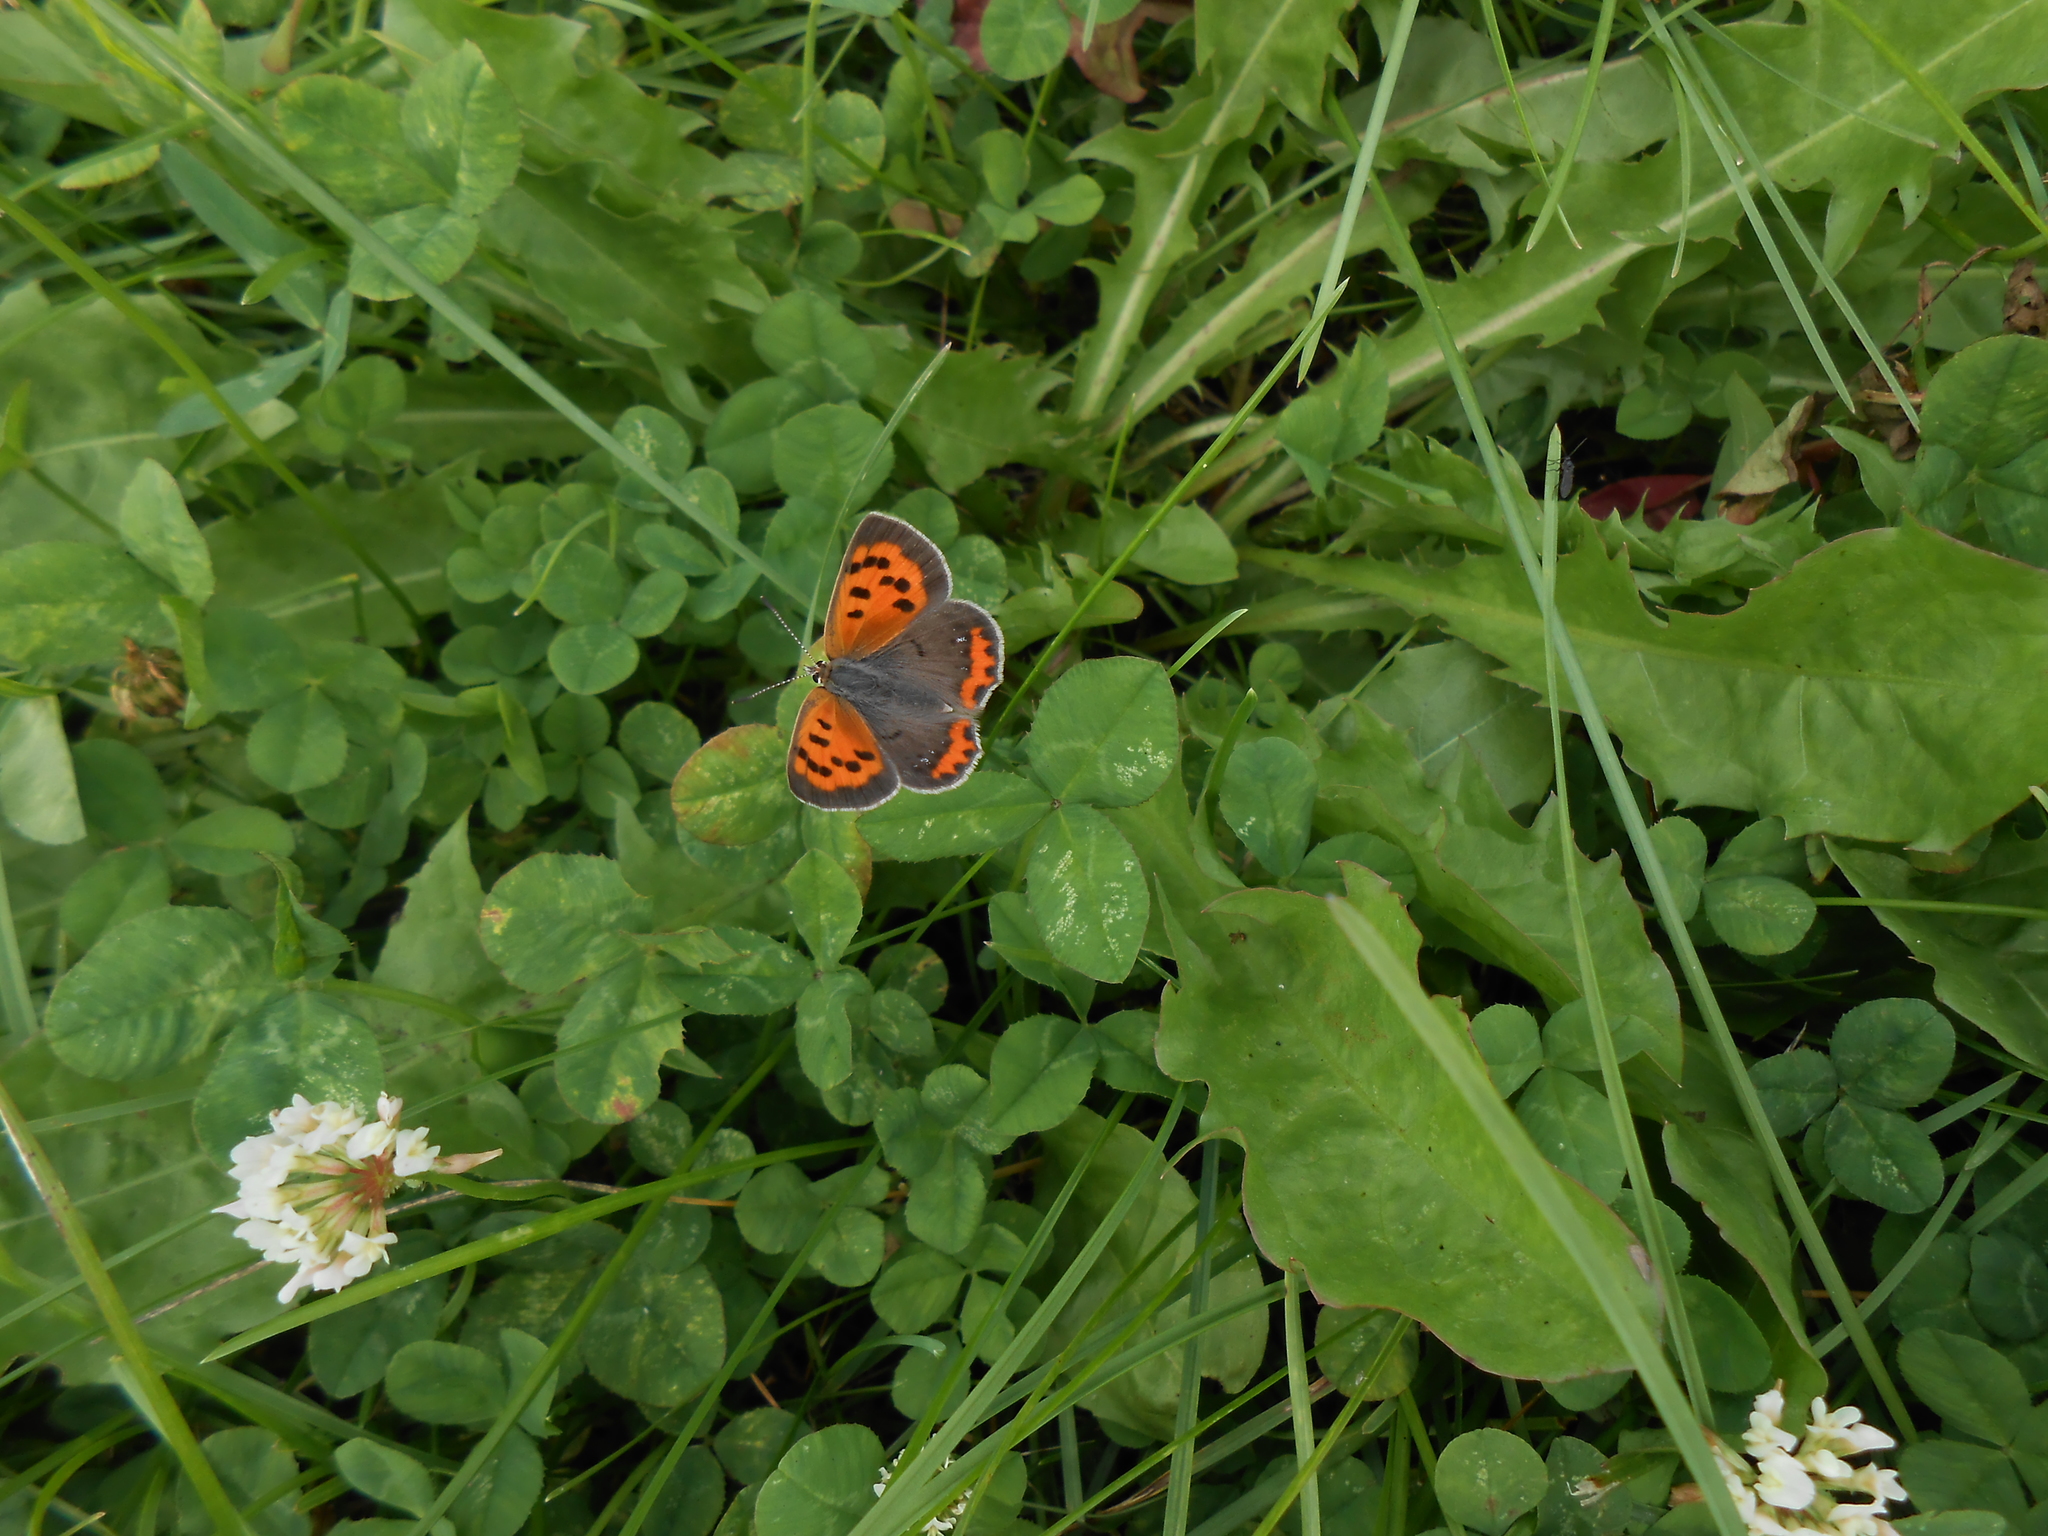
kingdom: Animalia
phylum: Arthropoda
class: Insecta
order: Lepidoptera
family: Lycaenidae
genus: Lycaena
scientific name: Lycaena hypophlaeas
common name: American copper
